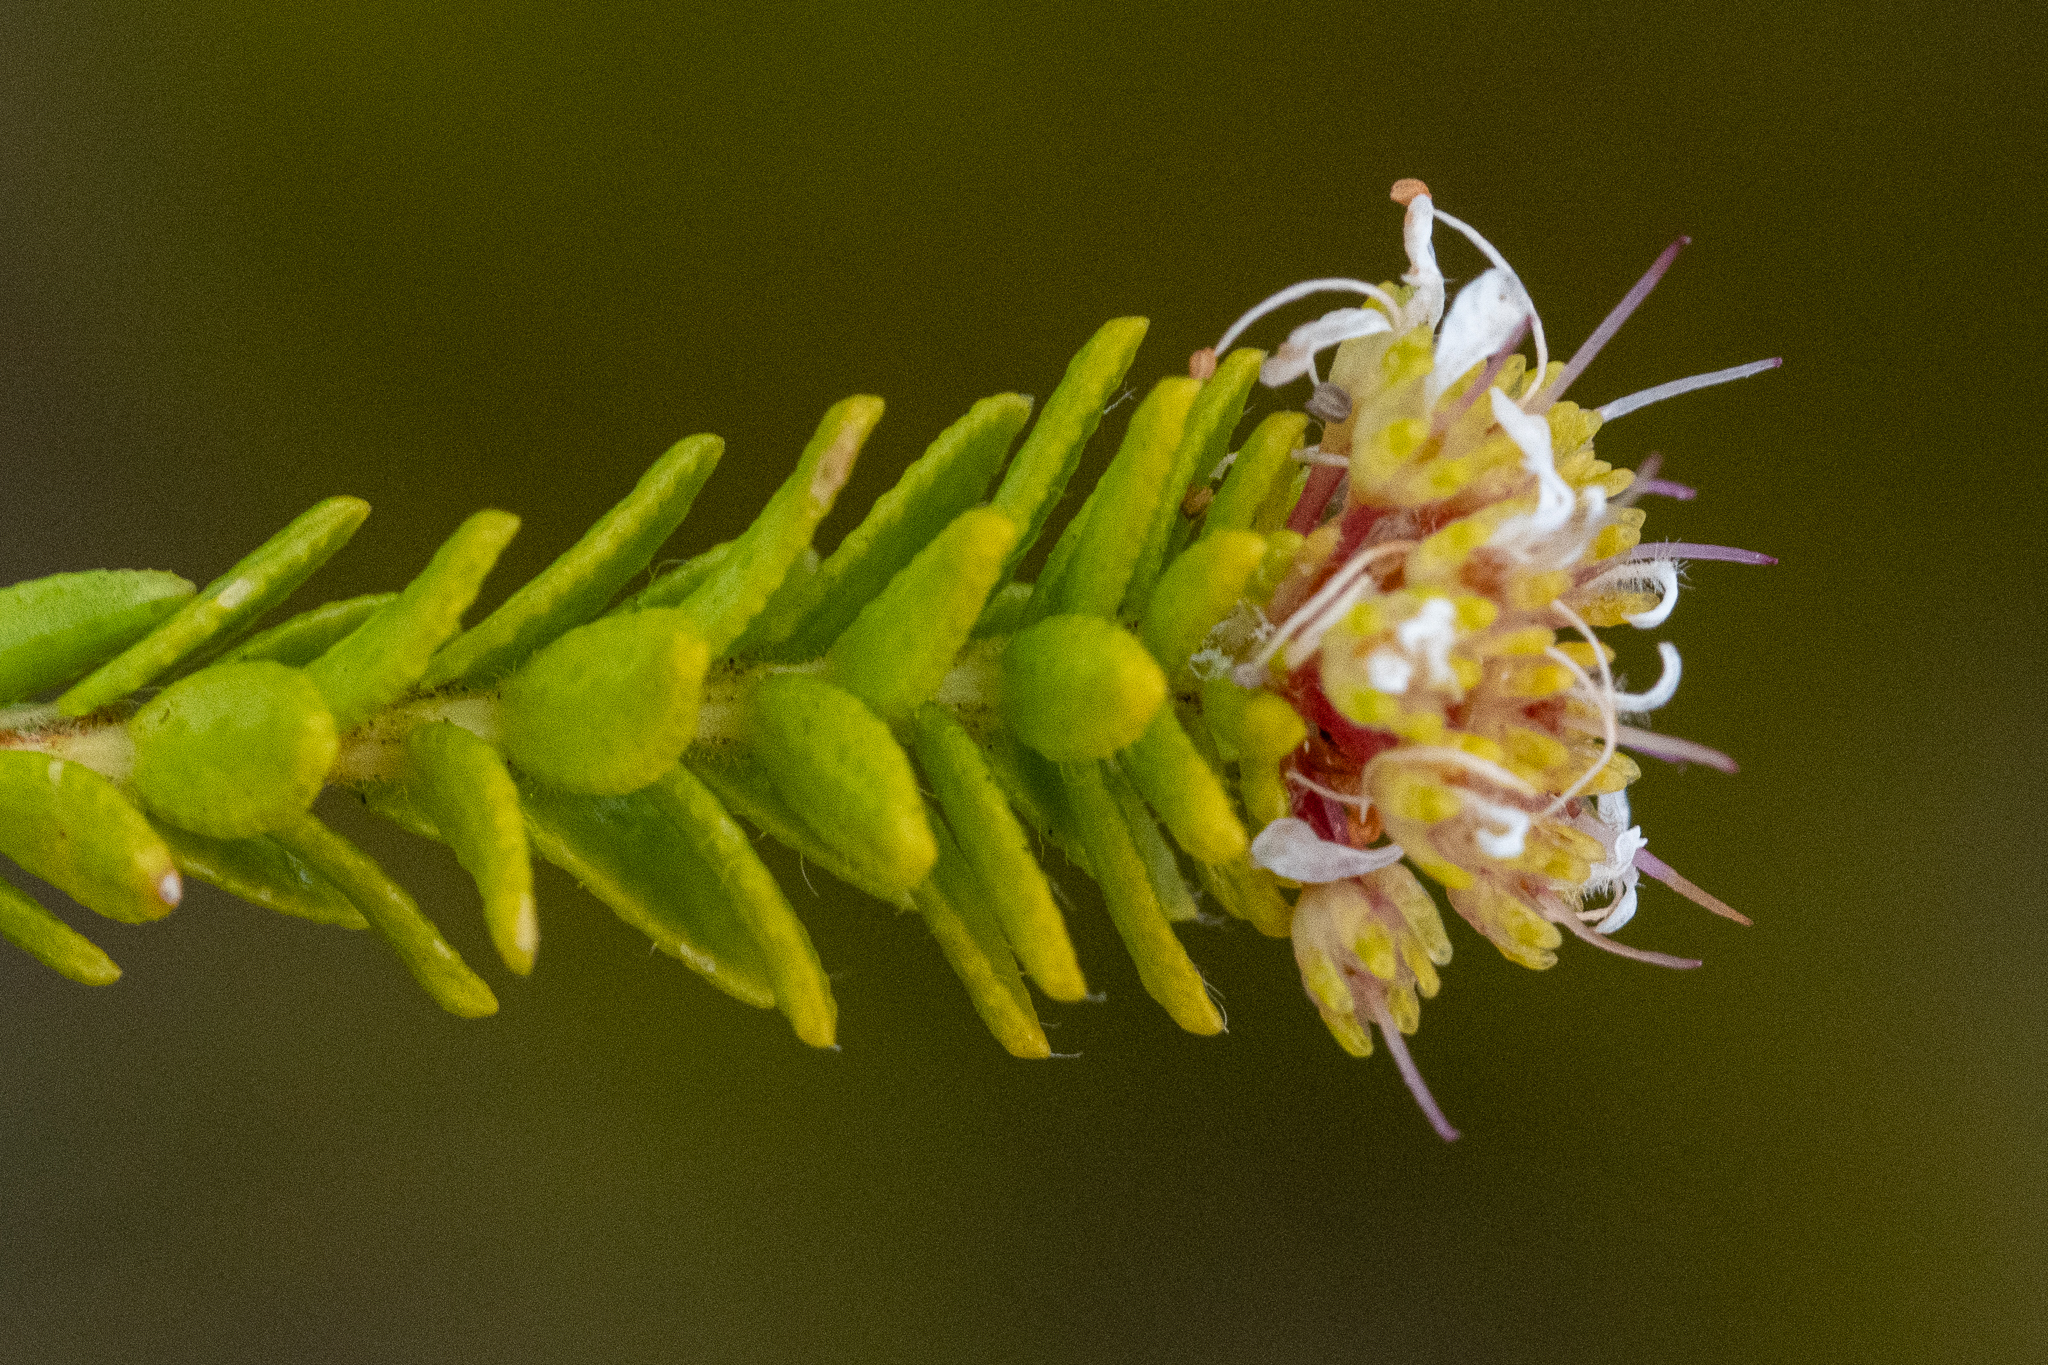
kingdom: Plantae
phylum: Tracheophyta
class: Magnoliopsida
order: Sapindales
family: Rutaceae
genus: Agathosma
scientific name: Agathosma ciliaris
